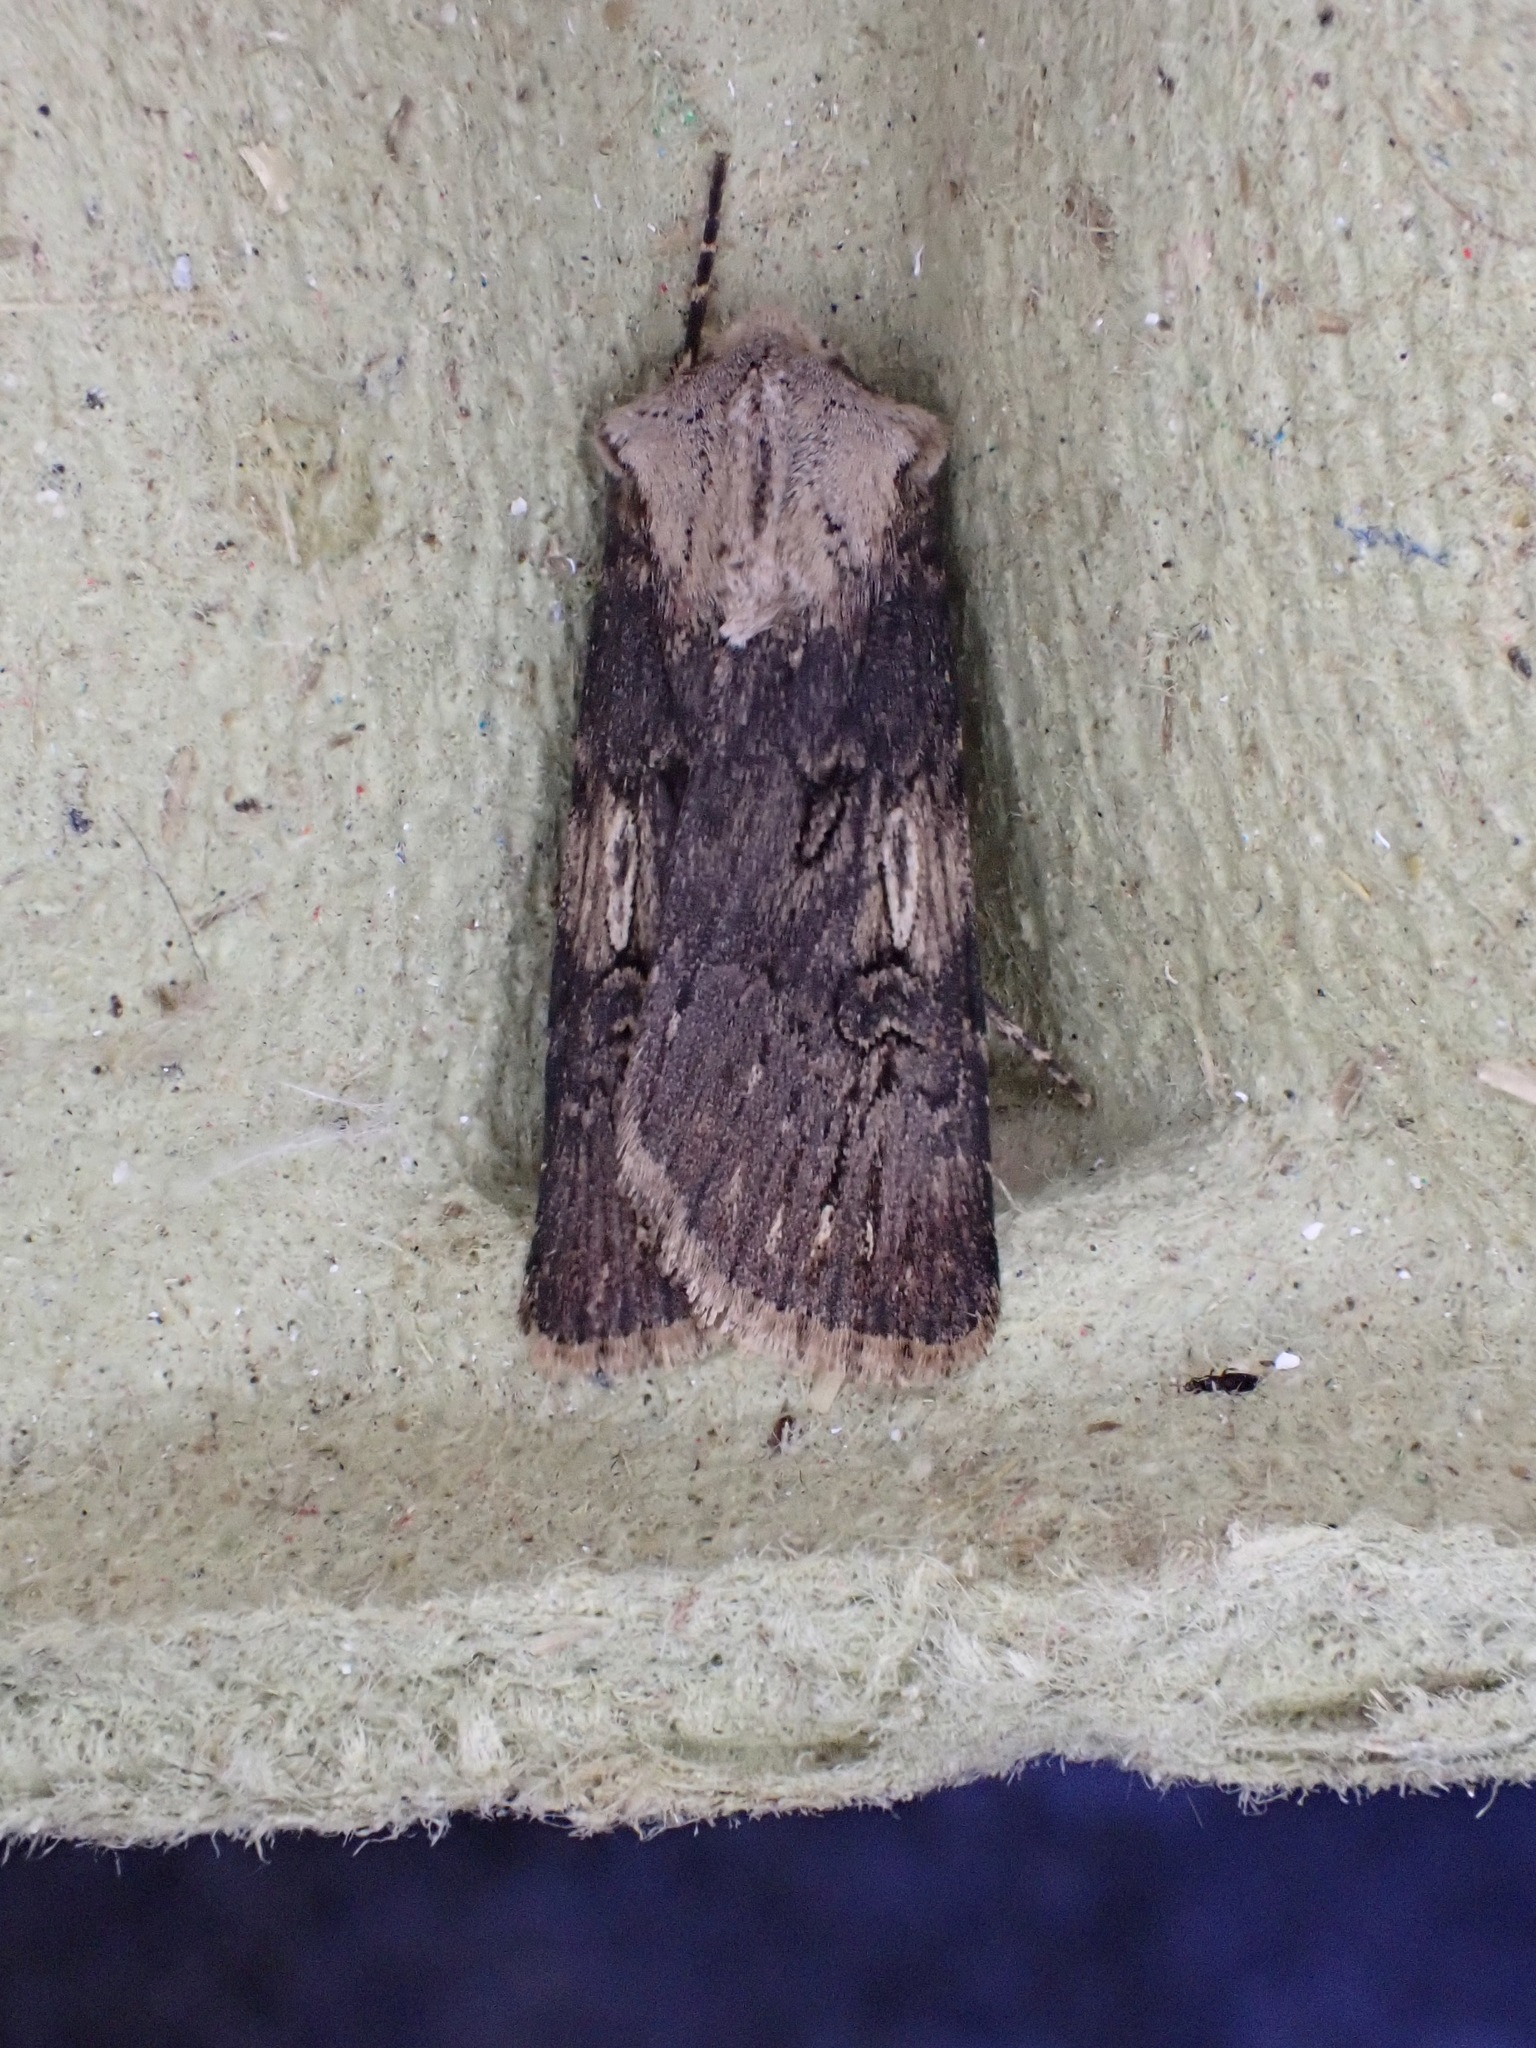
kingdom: Animalia
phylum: Arthropoda
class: Insecta
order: Lepidoptera
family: Noctuidae
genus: Agrotis
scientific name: Agrotis puta
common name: Shuttle-shaped dart
